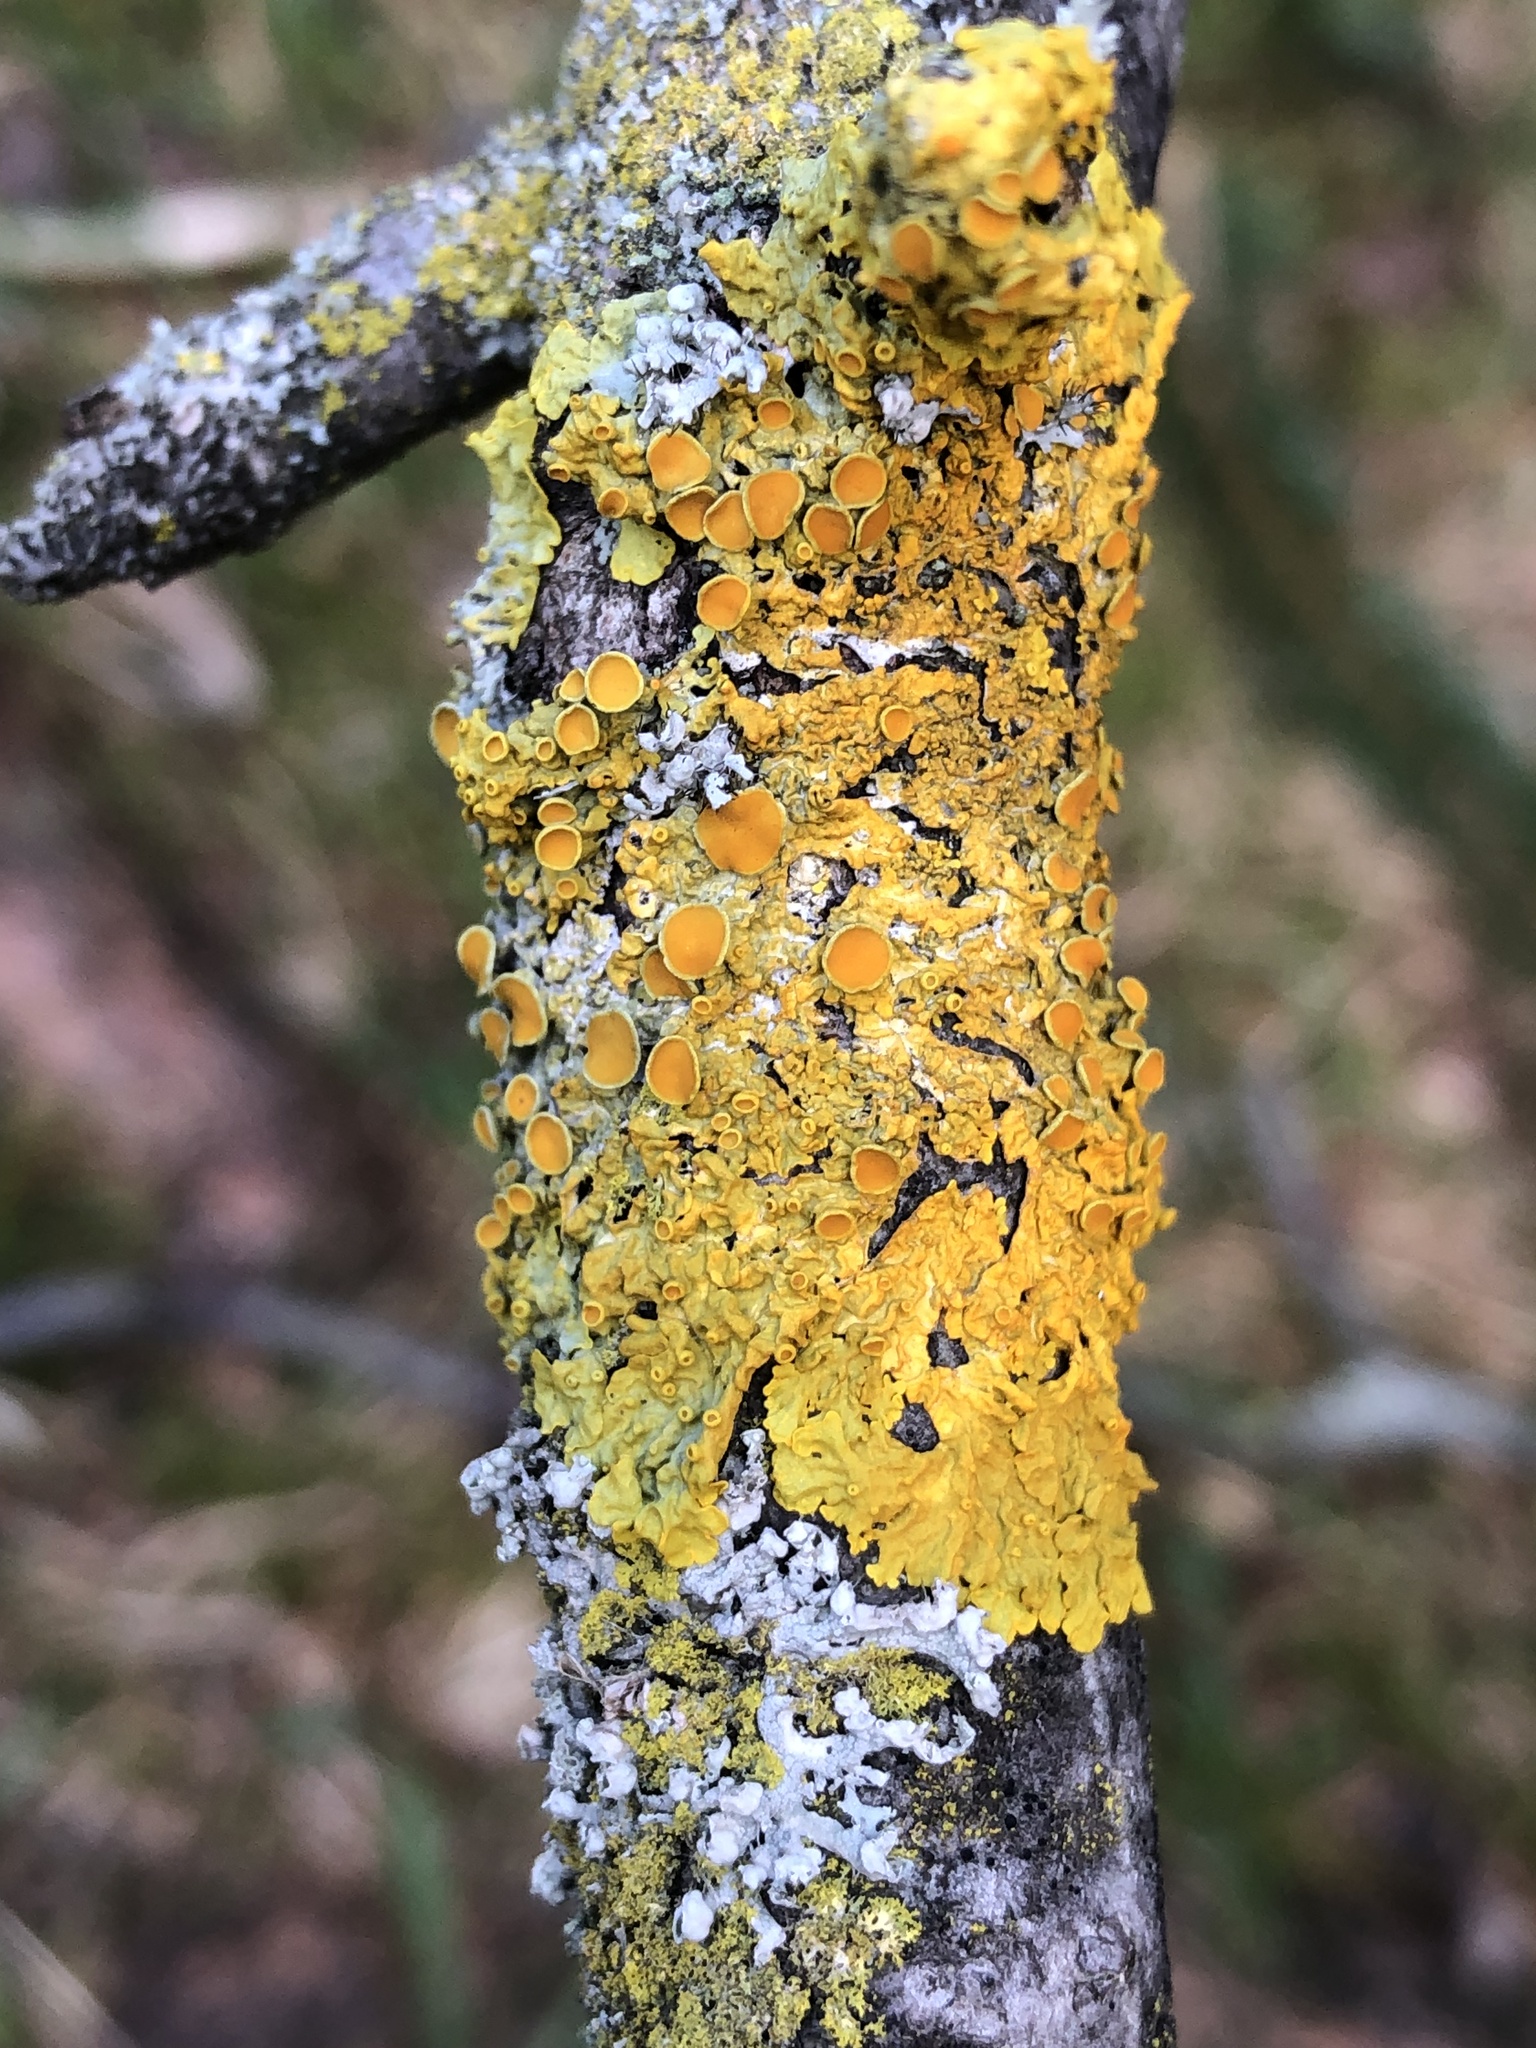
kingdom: Fungi
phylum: Ascomycota
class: Lecanoromycetes
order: Teloschistales
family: Teloschistaceae
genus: Xanthoria
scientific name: Xanthoria parietina
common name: Common orange lichen
